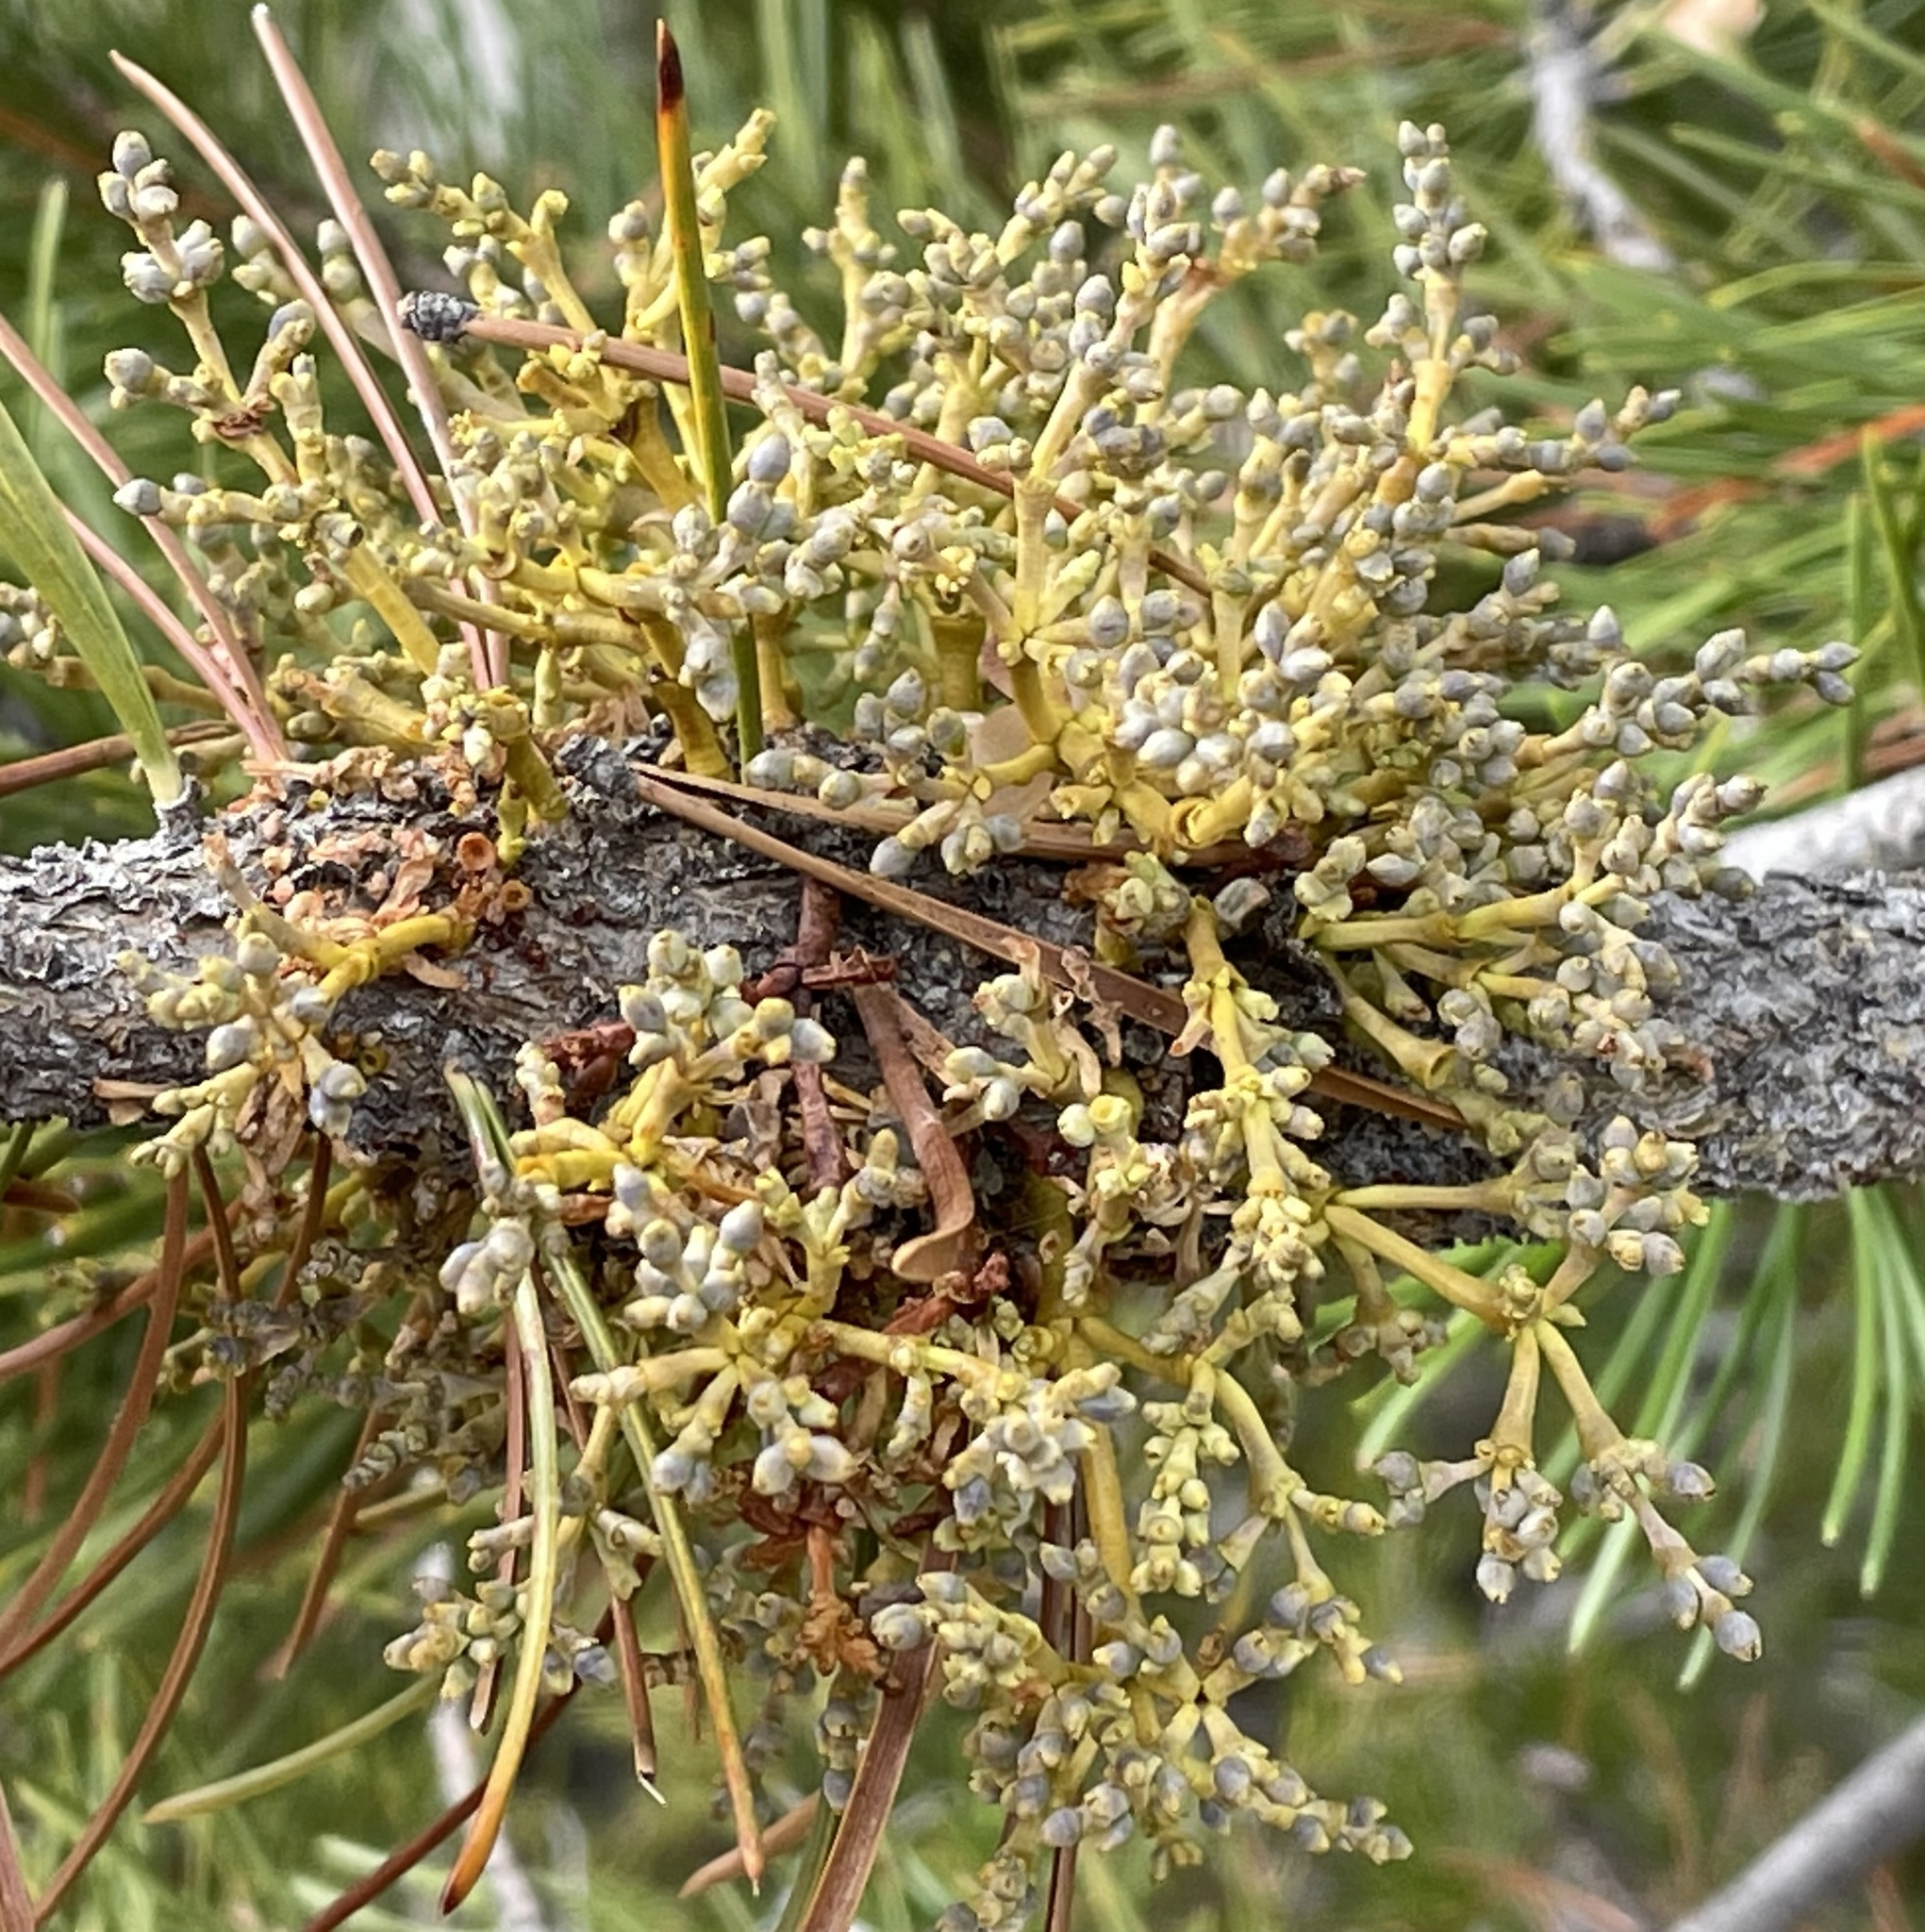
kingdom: Plantae
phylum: Tracheophyta
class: Magnoliopsida
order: Santalales
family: Viscaceae
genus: Arceuthobium
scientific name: Arceuthobium americanum
